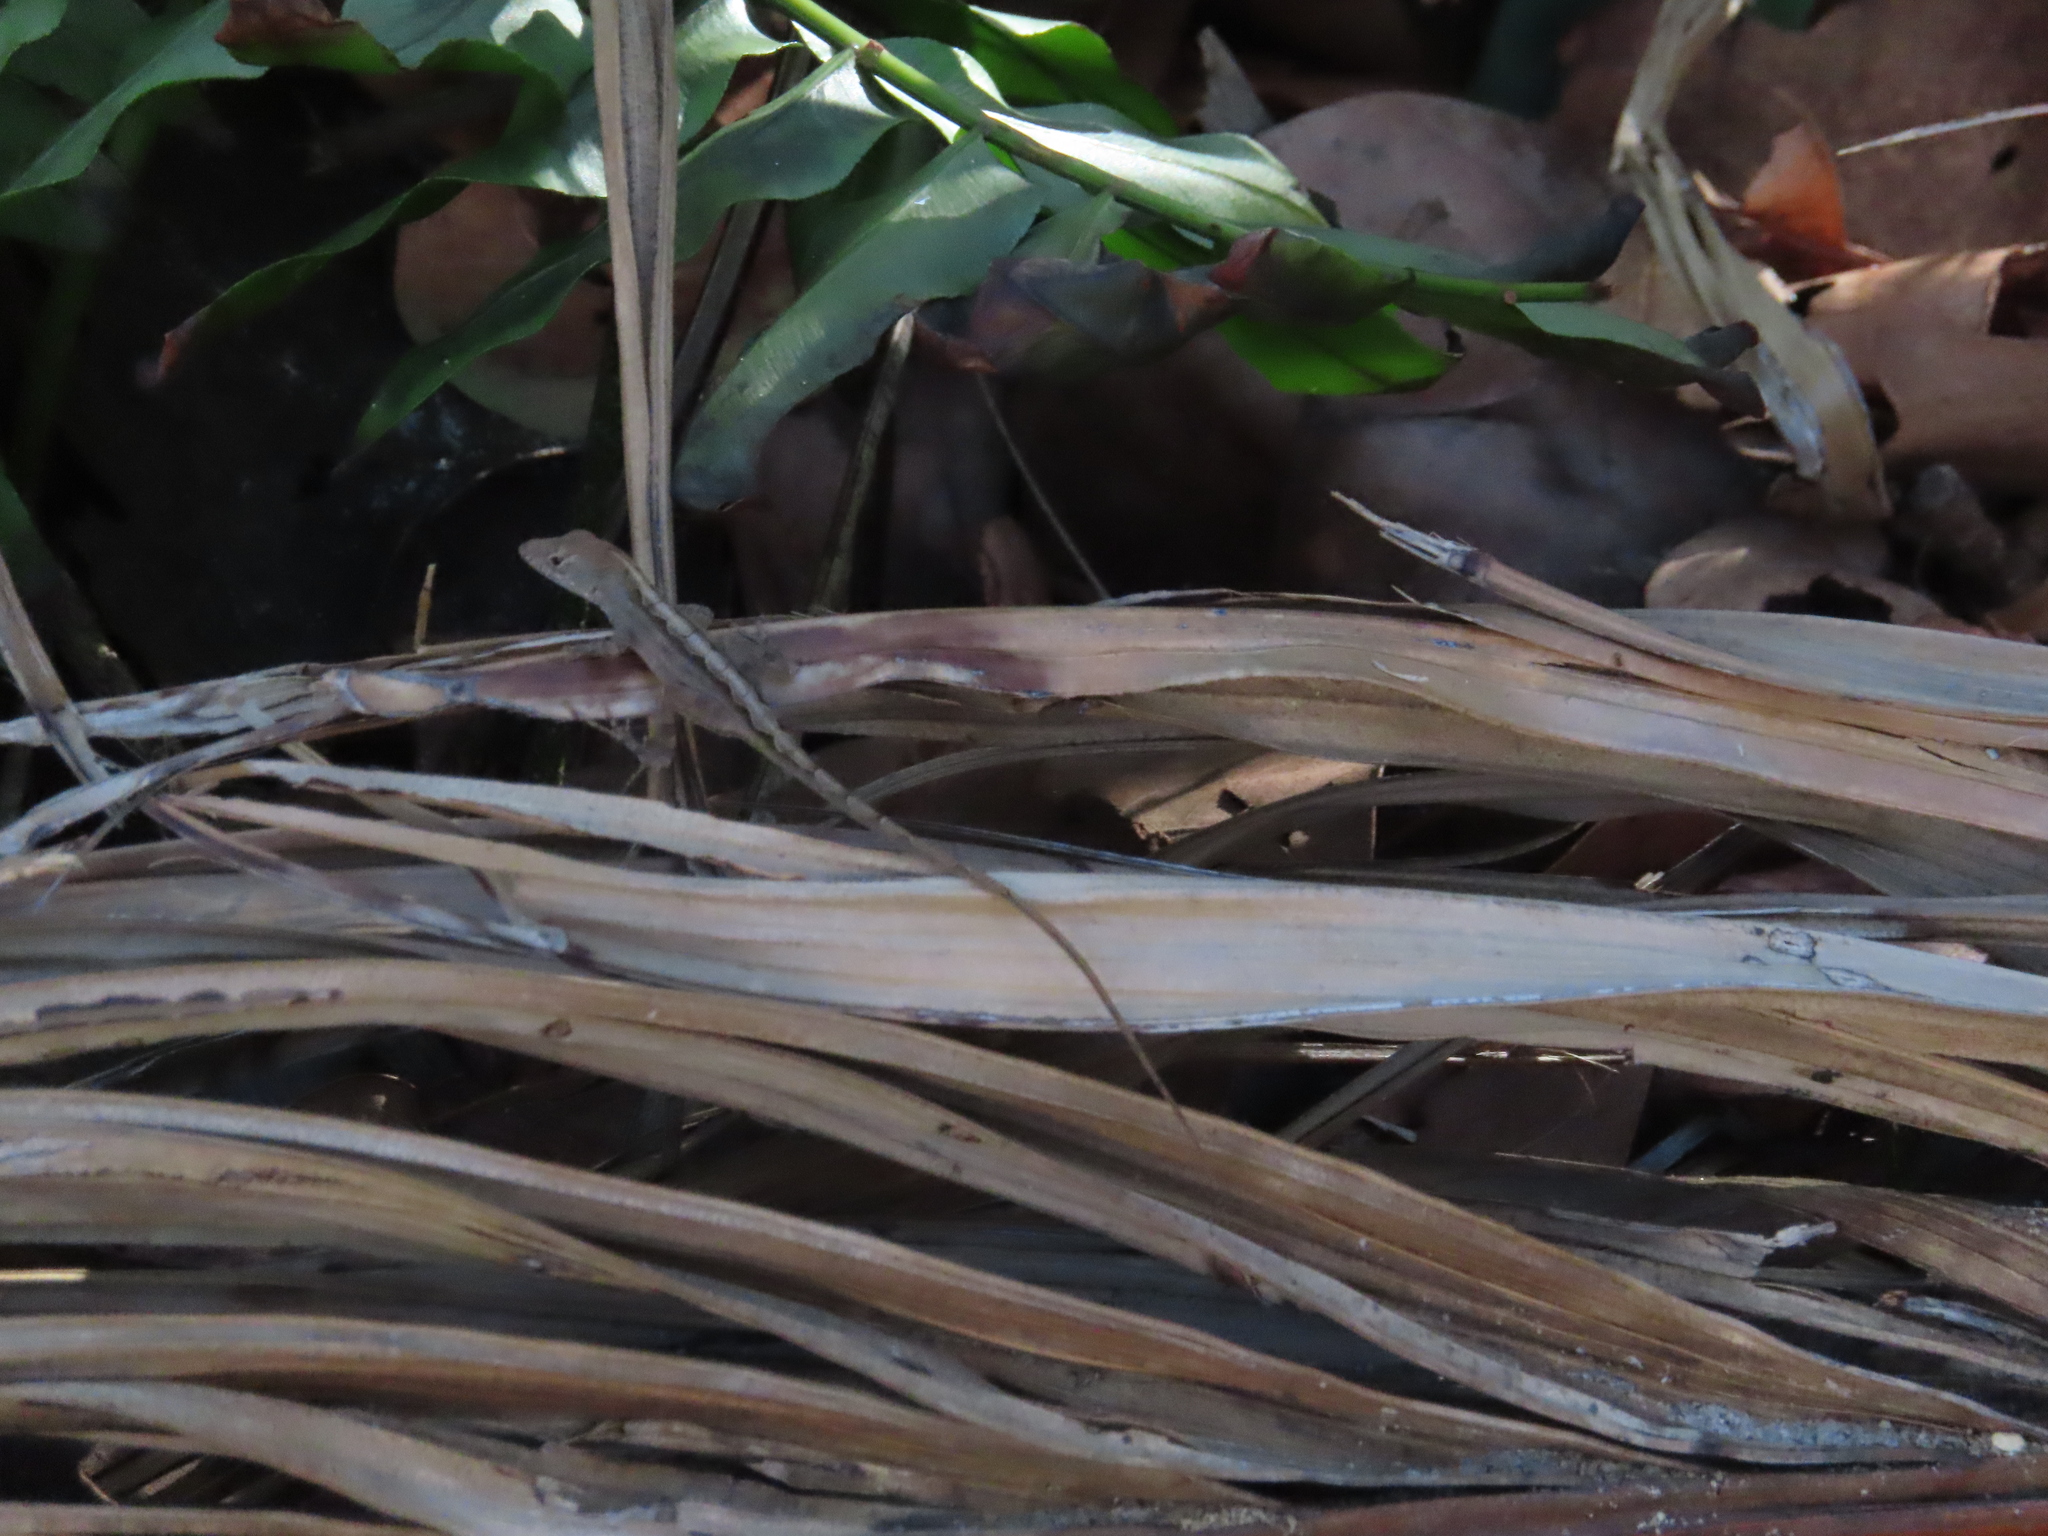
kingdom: Animalia
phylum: Chordata
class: Squamata
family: Dactyloidae
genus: Anolis
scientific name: Anolis sagrei
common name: Brown anole
